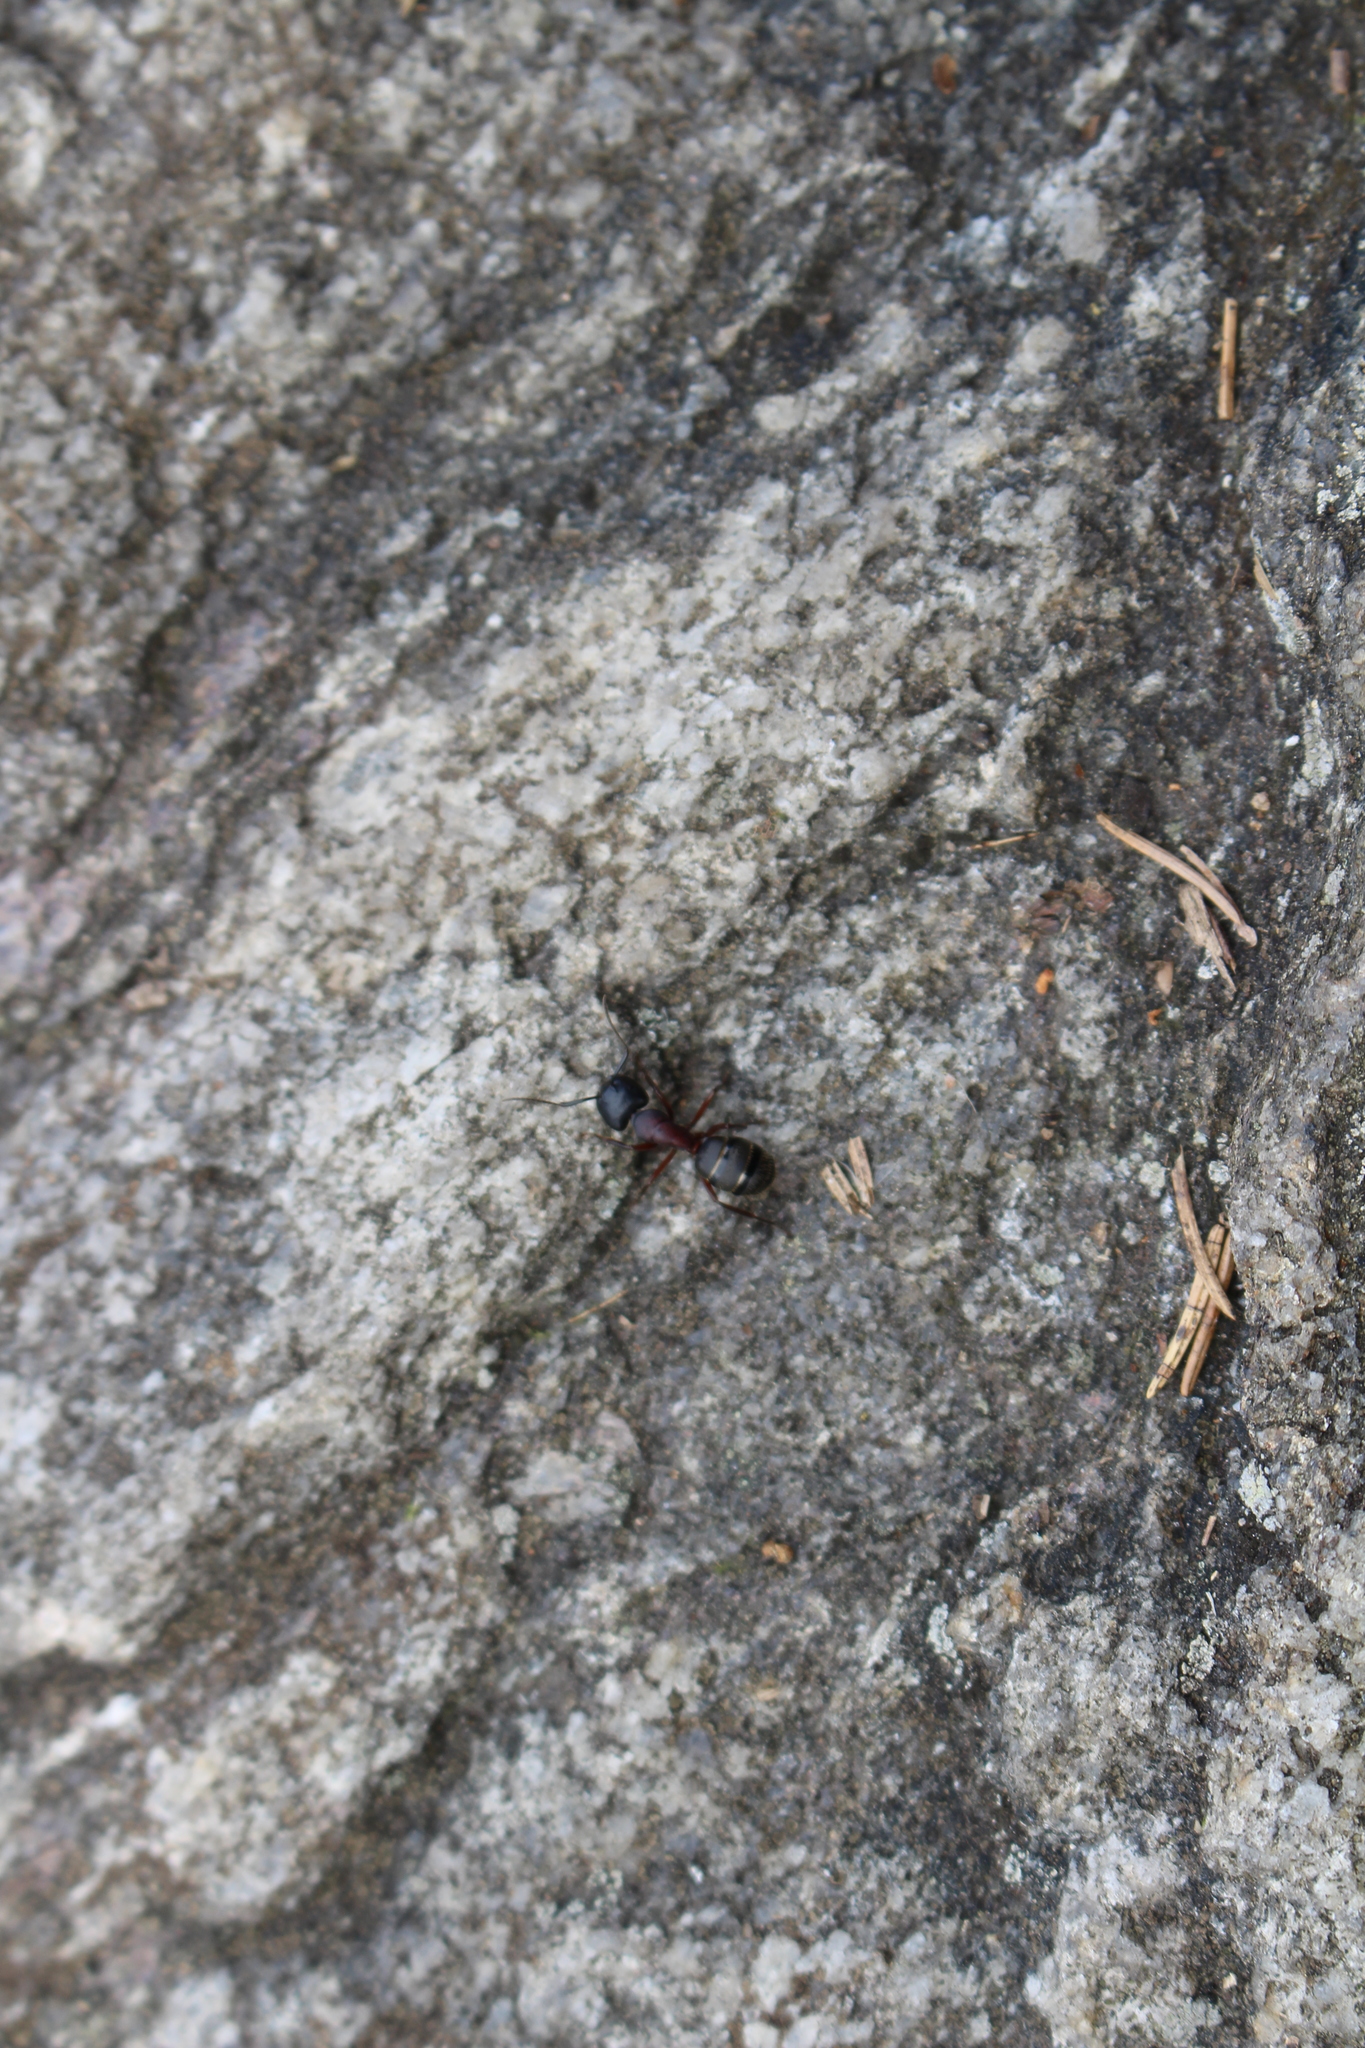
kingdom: Animalia
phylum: Arthropoda
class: Insecta
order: Hymenoptera
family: Formicidae
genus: Camponotus
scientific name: Camponotus herculeanus
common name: Hercules ant
